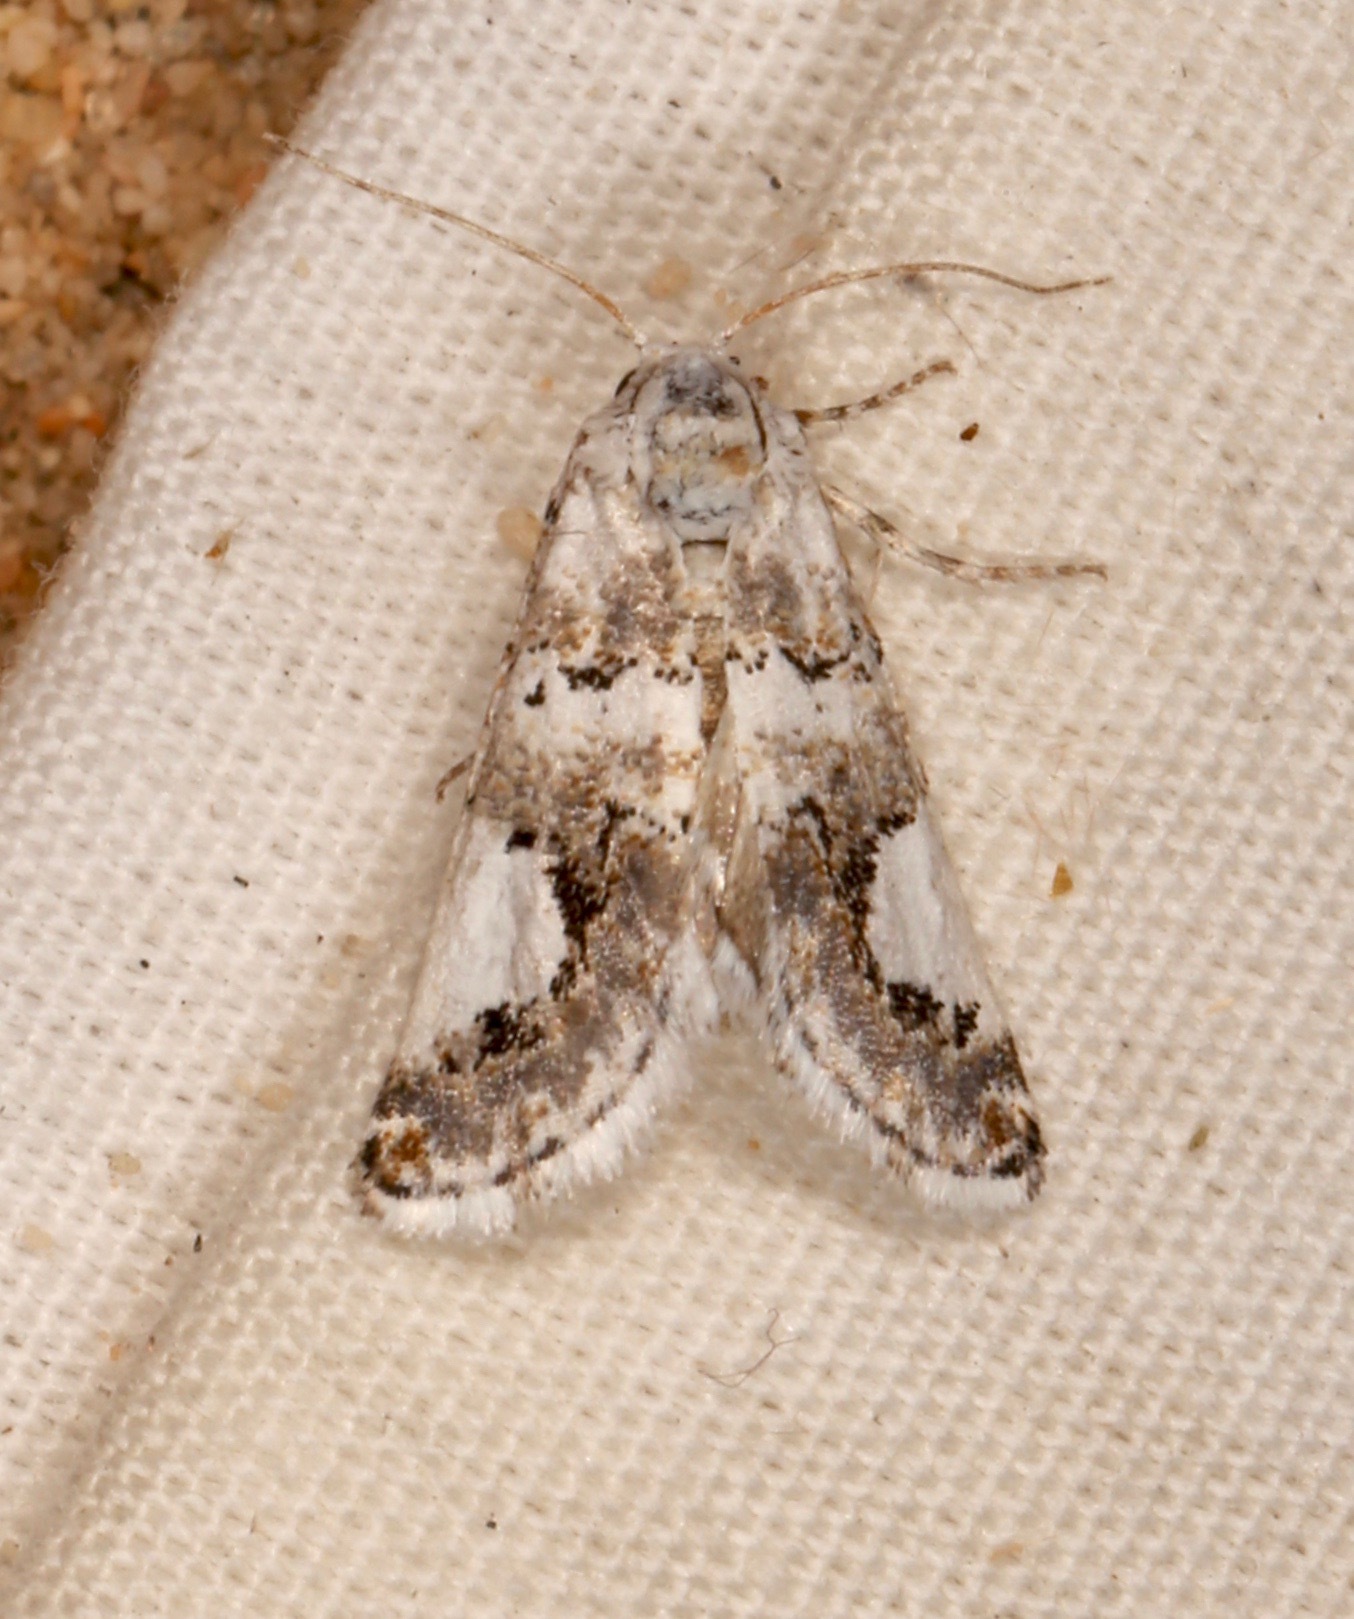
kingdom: Animalia
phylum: Arthropoda
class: Insecta
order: Lepidoptera
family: Noctuidae
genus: Tristyla
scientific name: Tristyla alboplagiata
